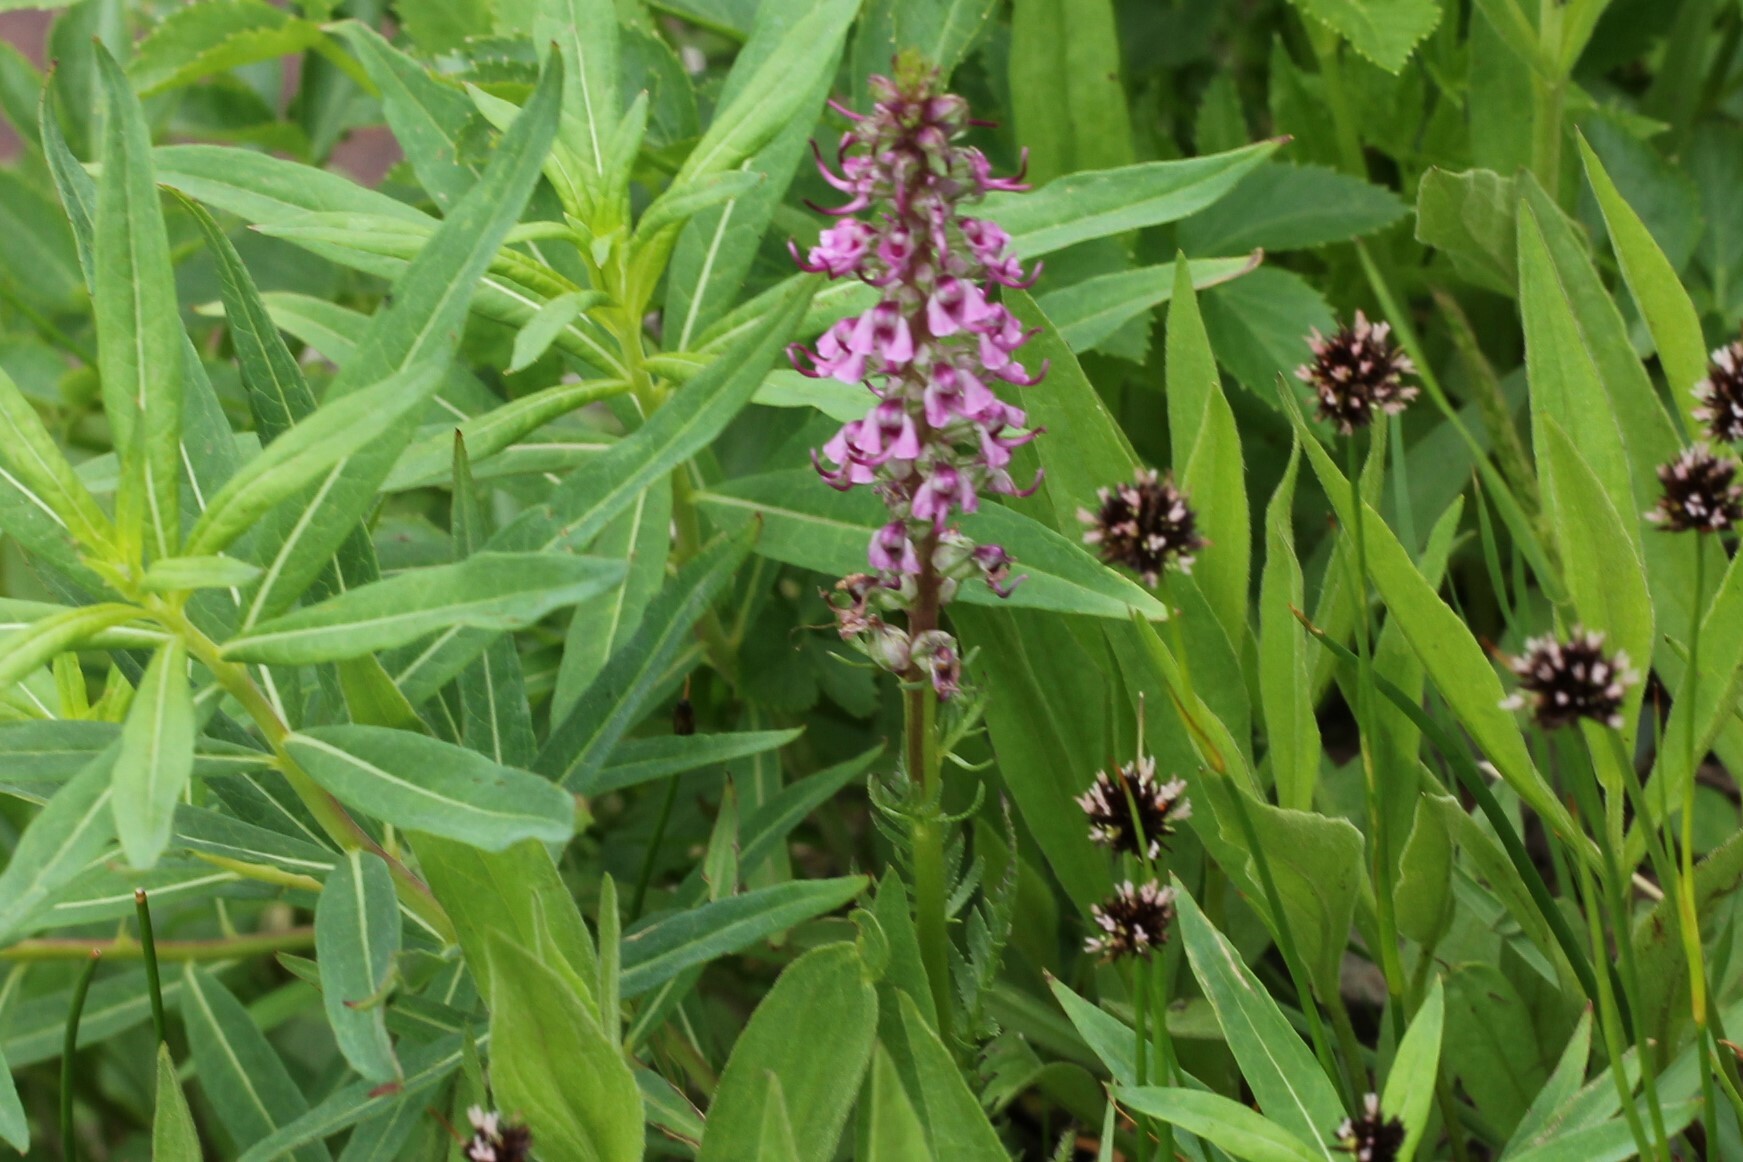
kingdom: Plantae
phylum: Tracheophyta
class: Magnoliopsida
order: Lamiales
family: Orobanchaceae
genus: Pedicularis
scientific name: Pedicularis groenlandica
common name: Elephant's-head
